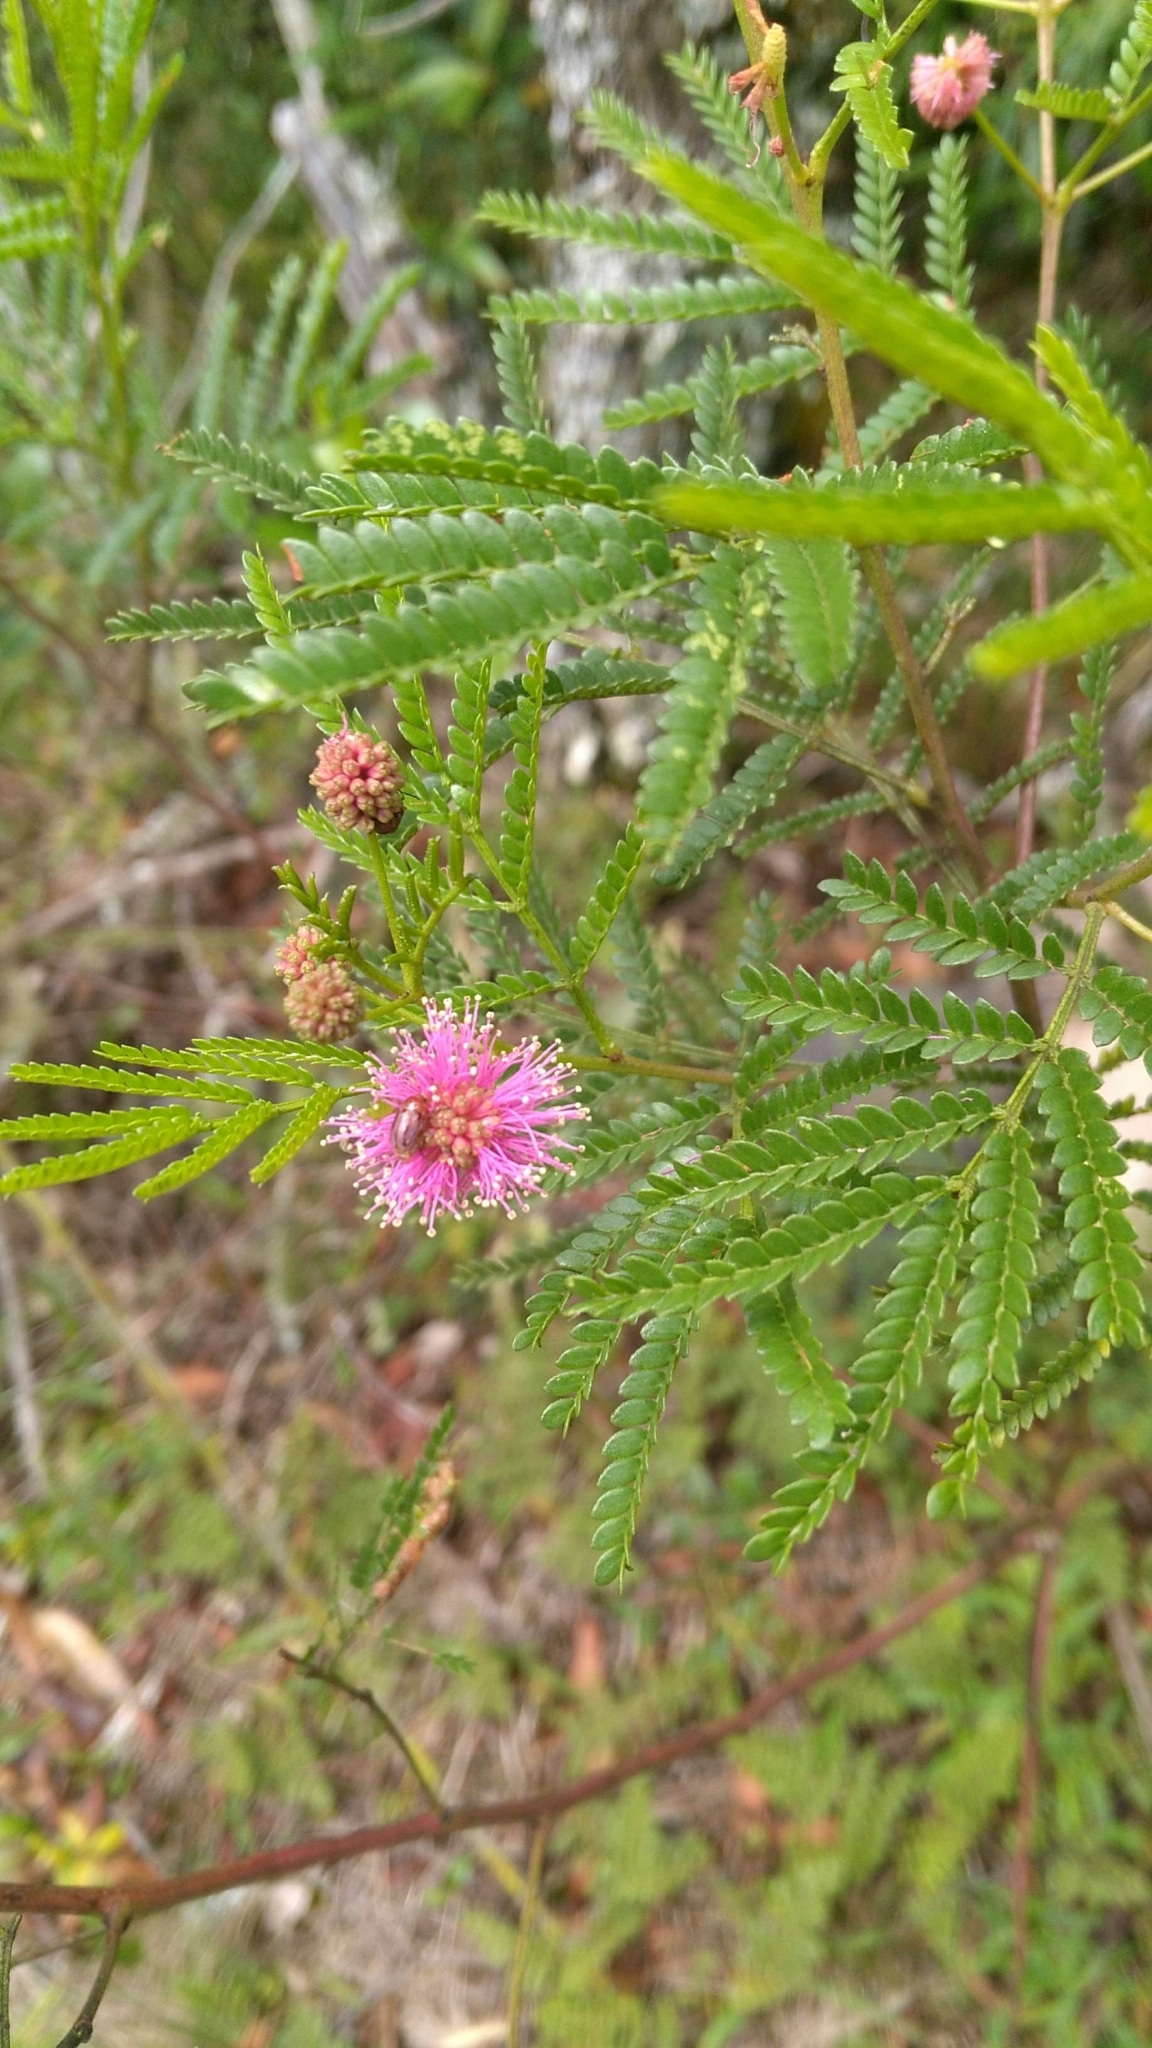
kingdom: Plantae
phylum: Tracheophyta
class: Magnoliopsida
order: Fabales
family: Fabaceae
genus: Mimosa
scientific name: Mimosa bifurca
